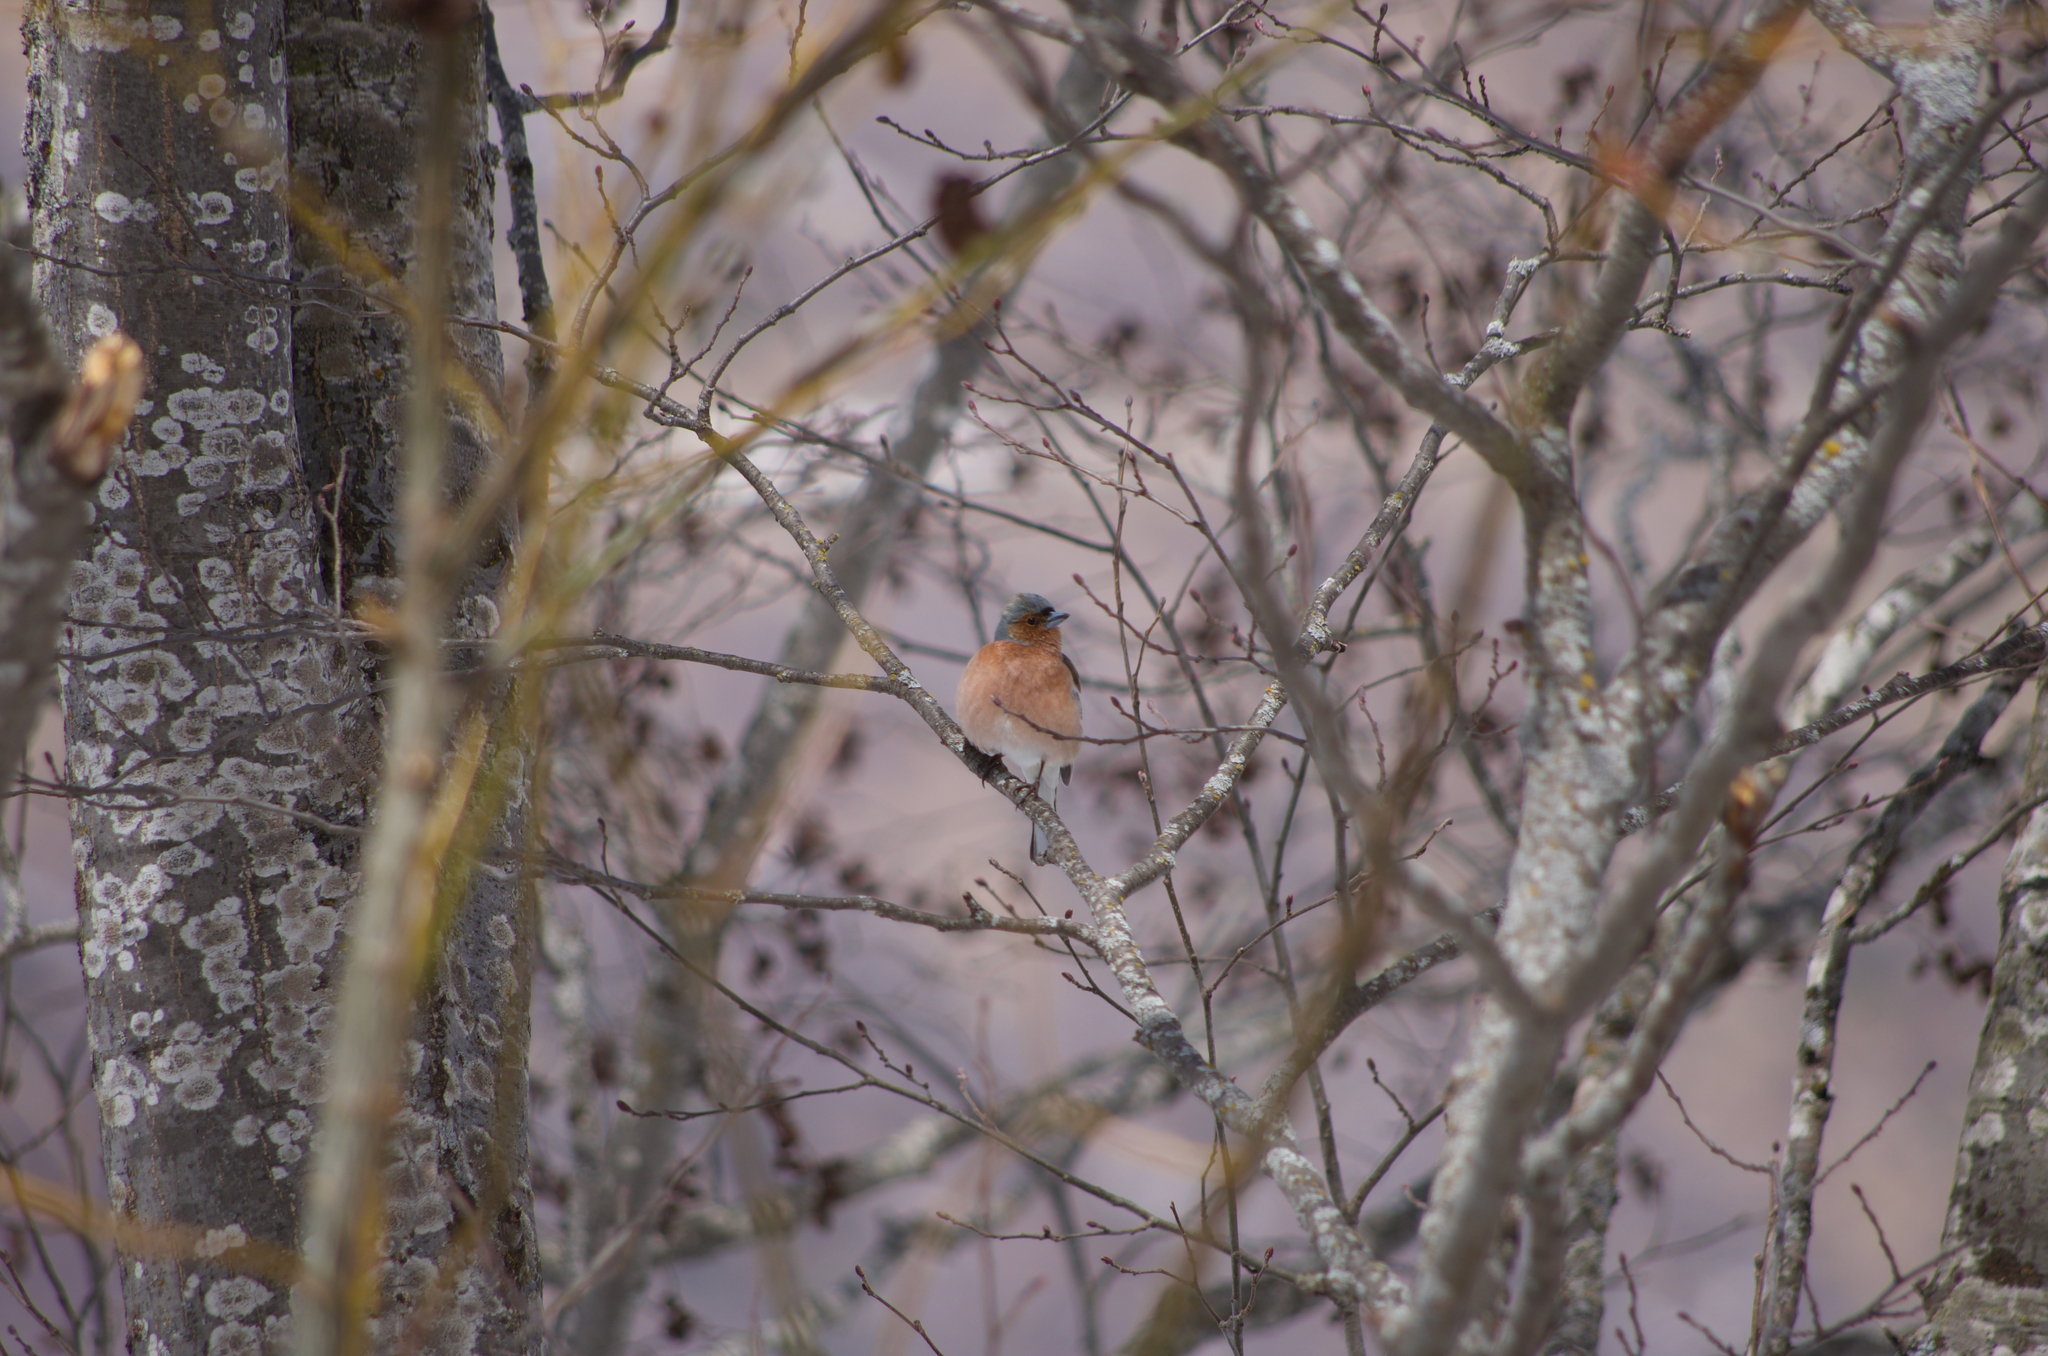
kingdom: Animalia
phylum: Chordata
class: Aves
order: Passeriformes
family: Fringillidae
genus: Fringilla
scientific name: Fringilla coelebs
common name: Common chaffinch
